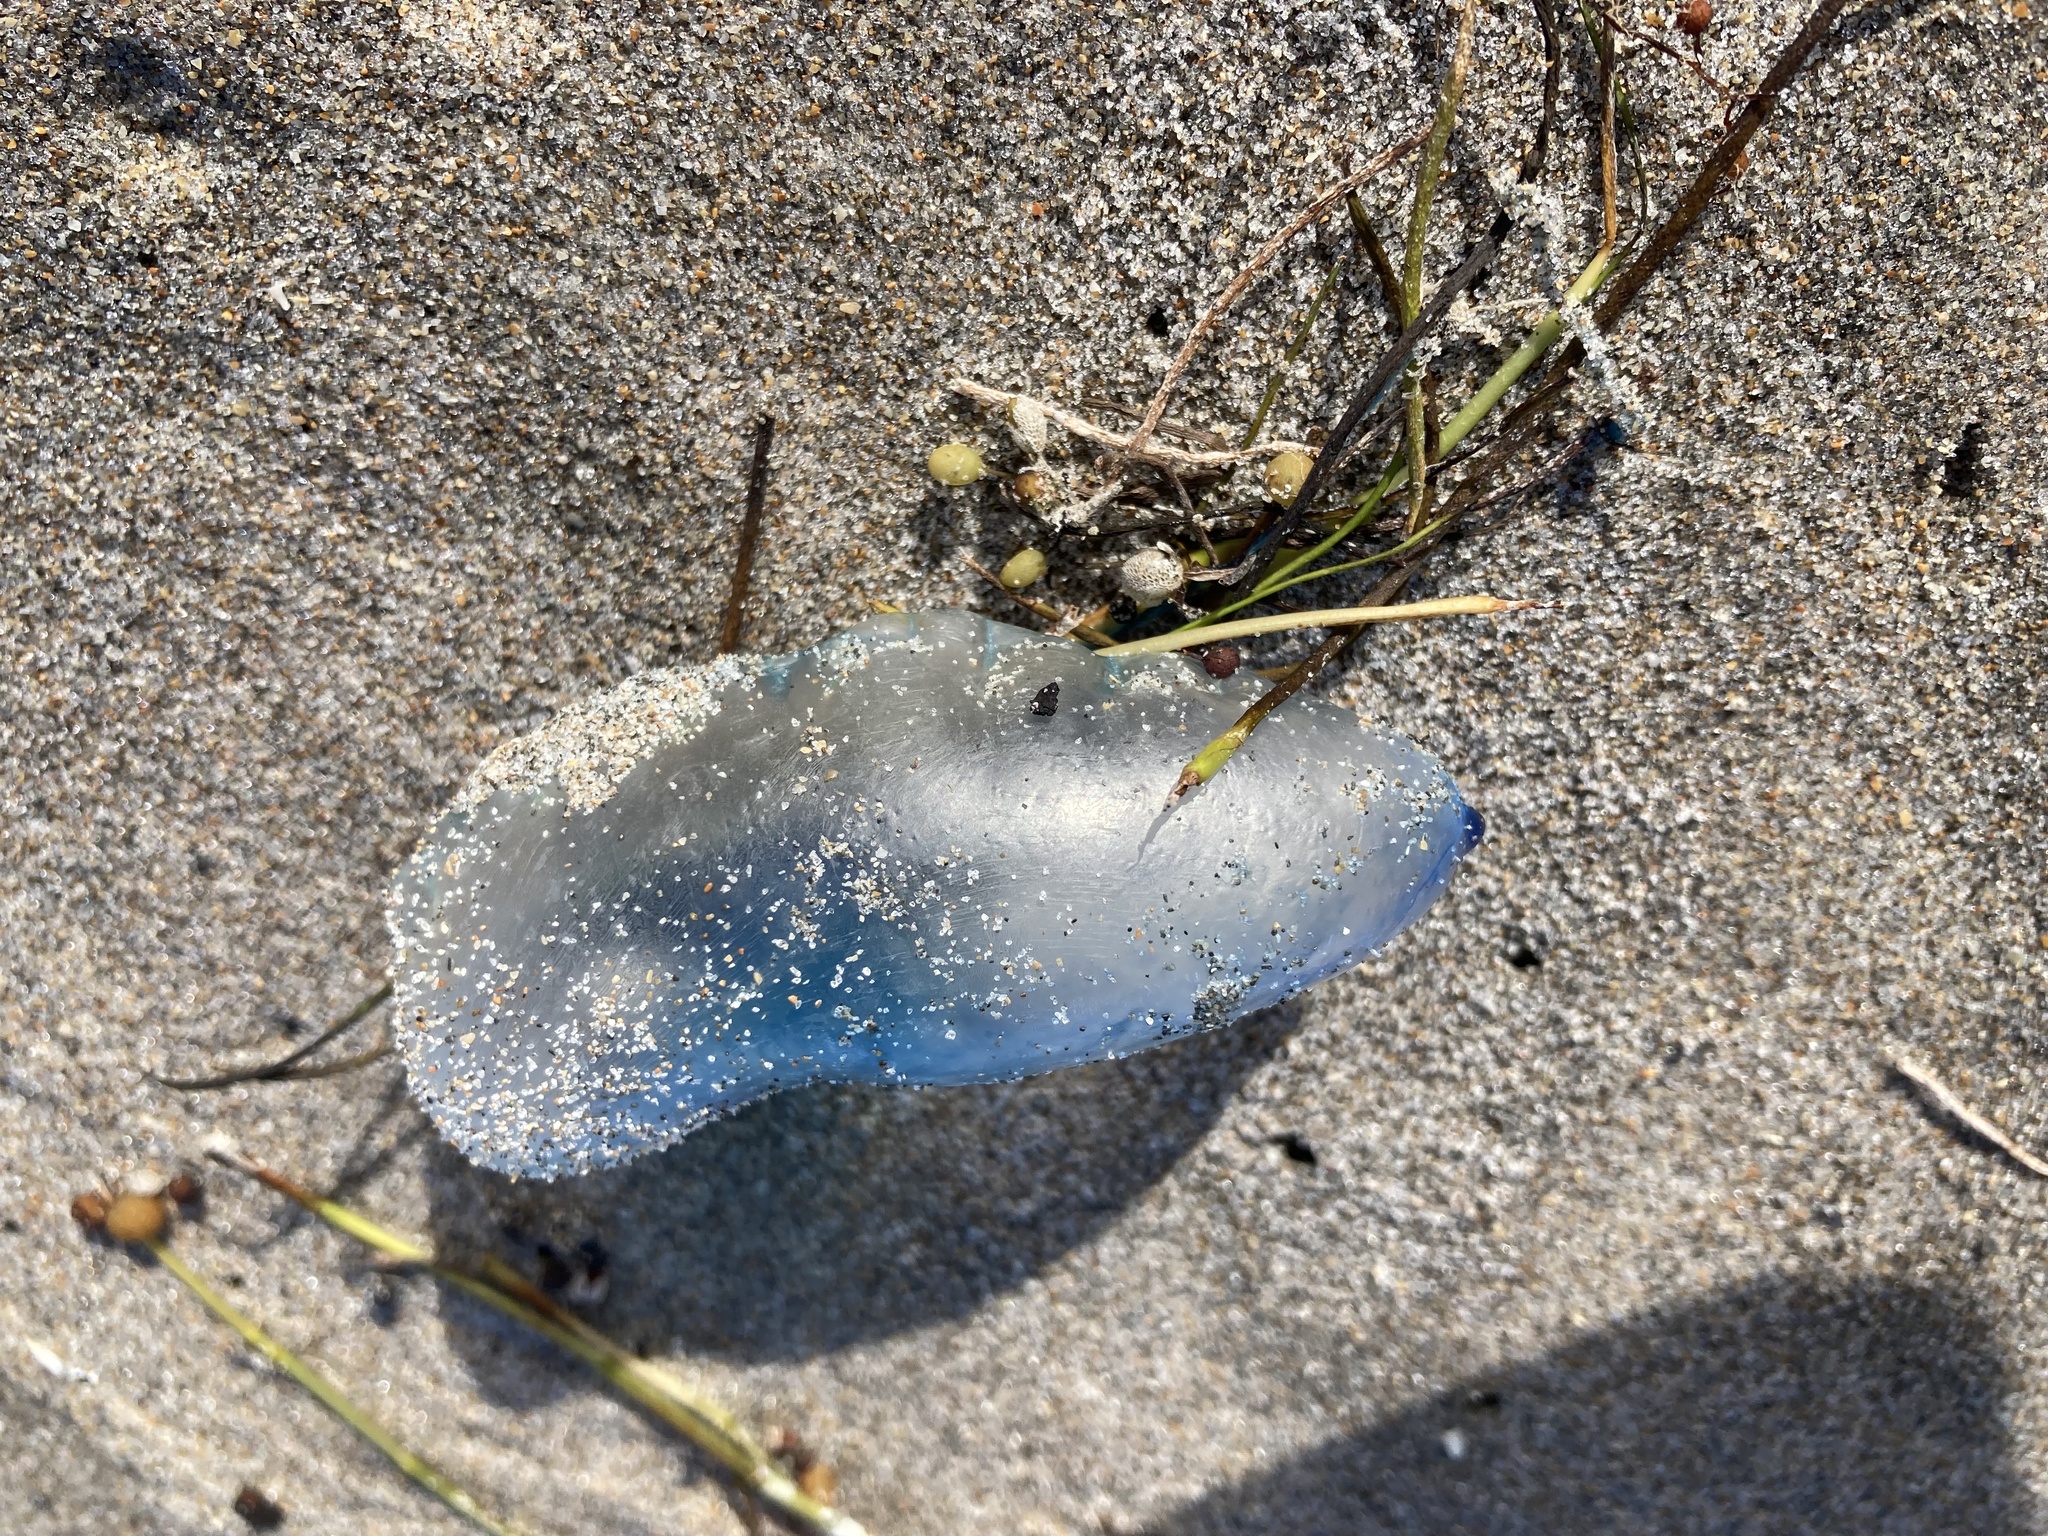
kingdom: Animalia
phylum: Cnidaria
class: Hydrozoa
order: Siphonophorae
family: Physaliidae
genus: Physalia
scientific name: Physalia physalis
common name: Portuguese man-of-war
